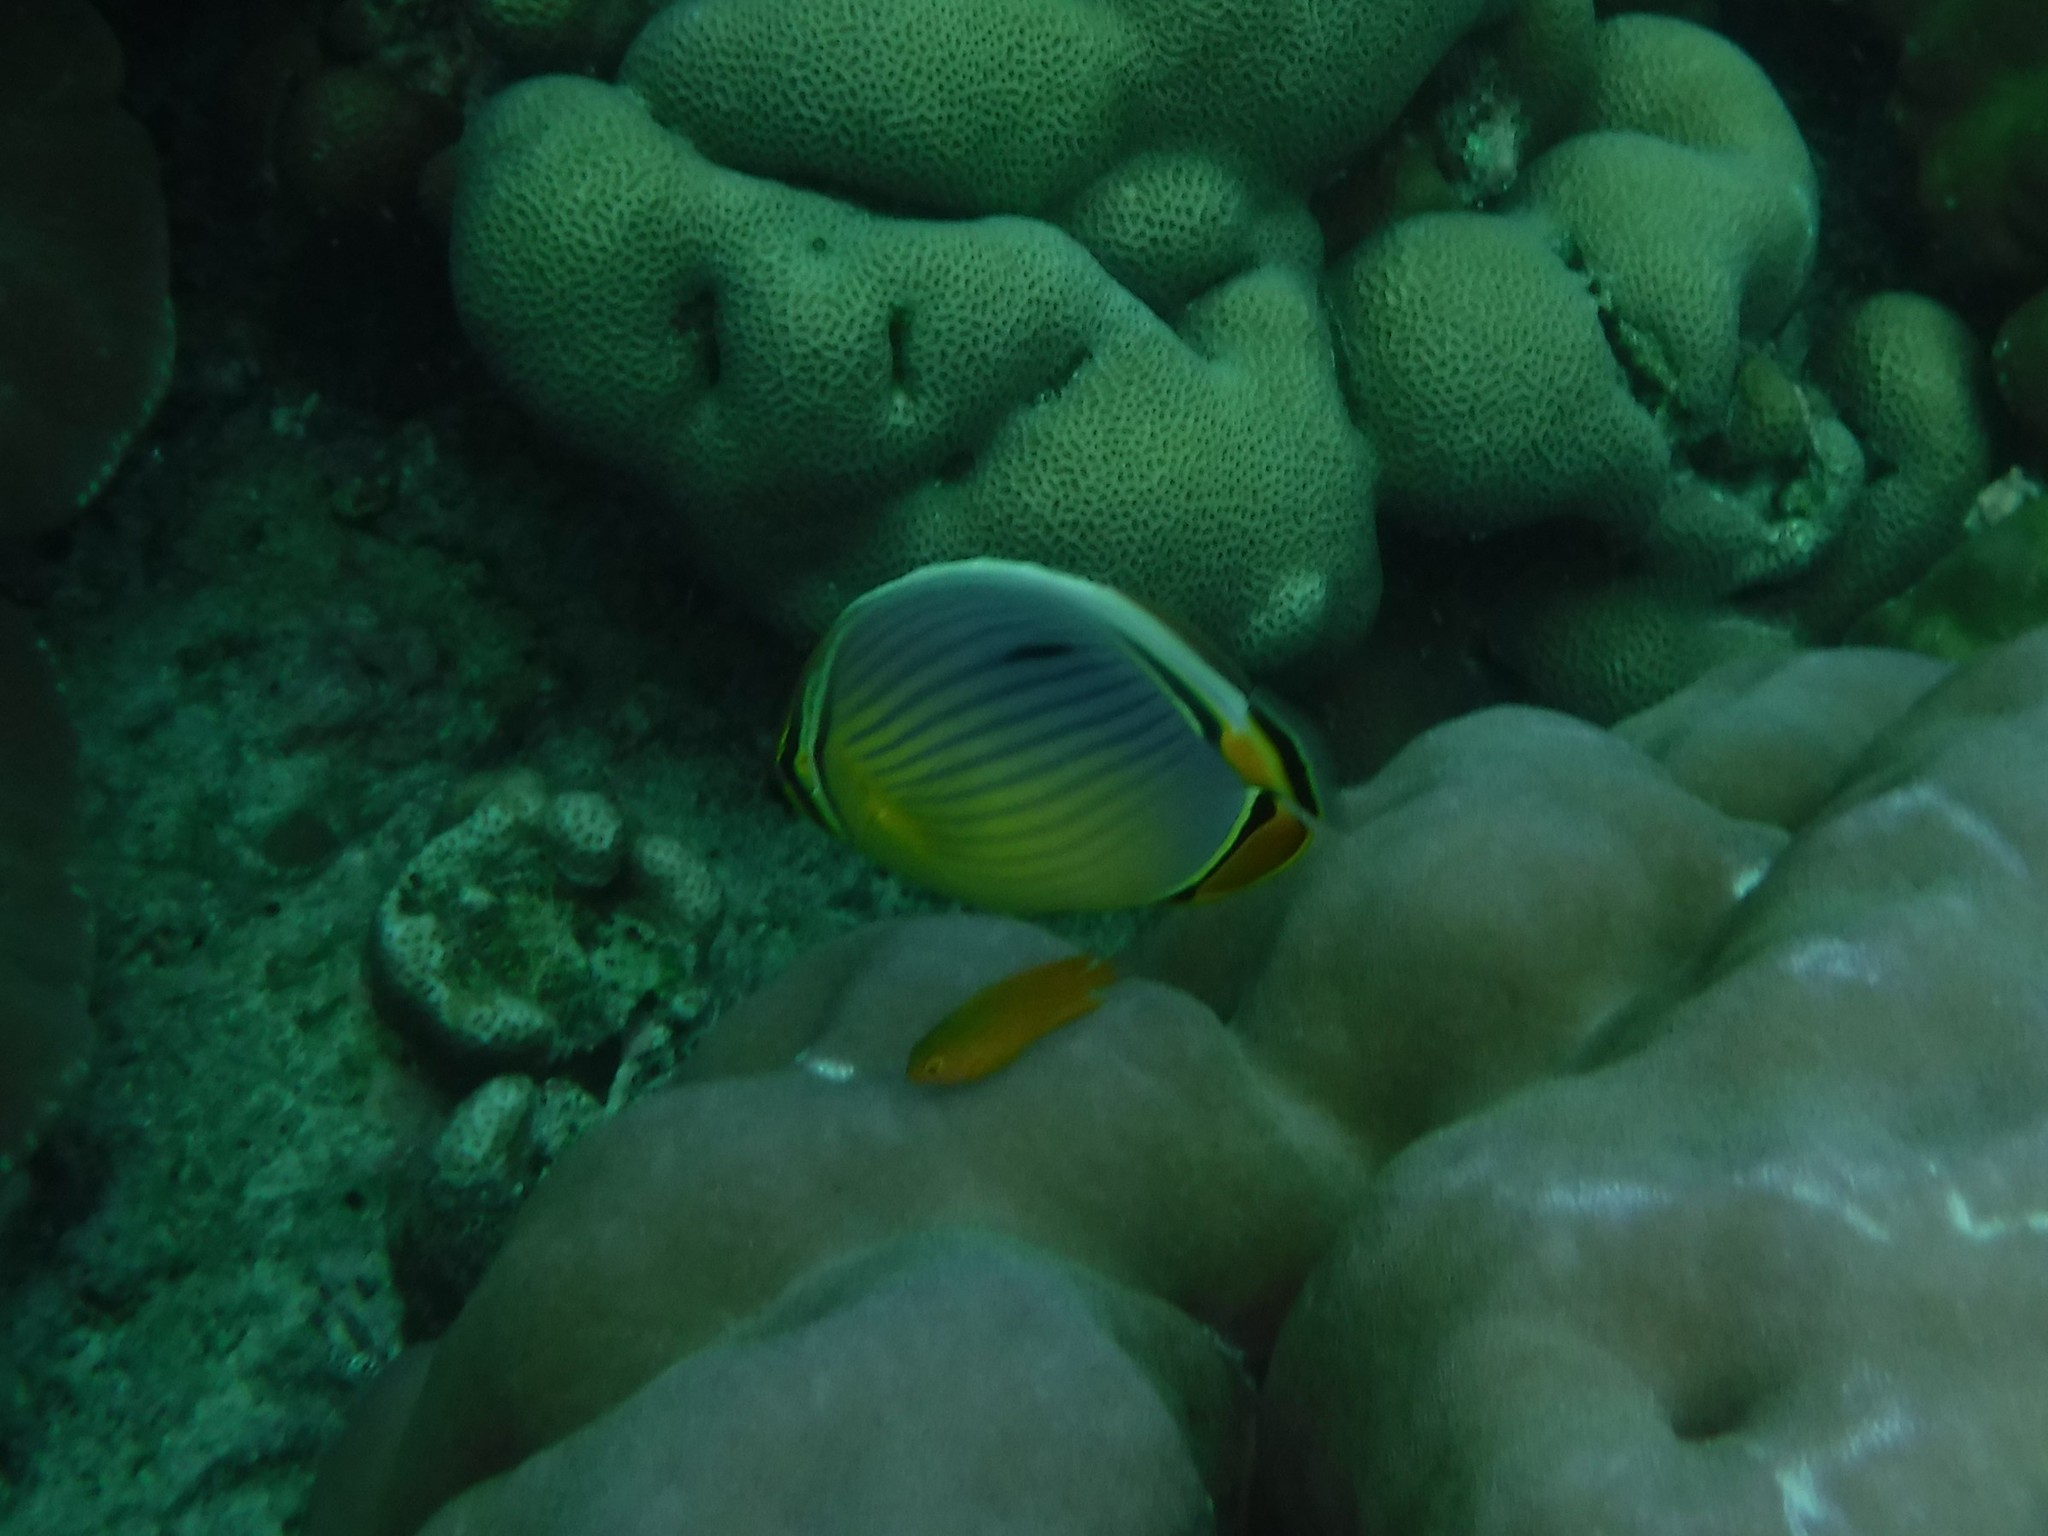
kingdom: Animalia
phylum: Chordata
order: Perciformes
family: Chaetodontidae
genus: Chaetodon
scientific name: Chaetodon trifasciatus
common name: Redfin butterflyfish
